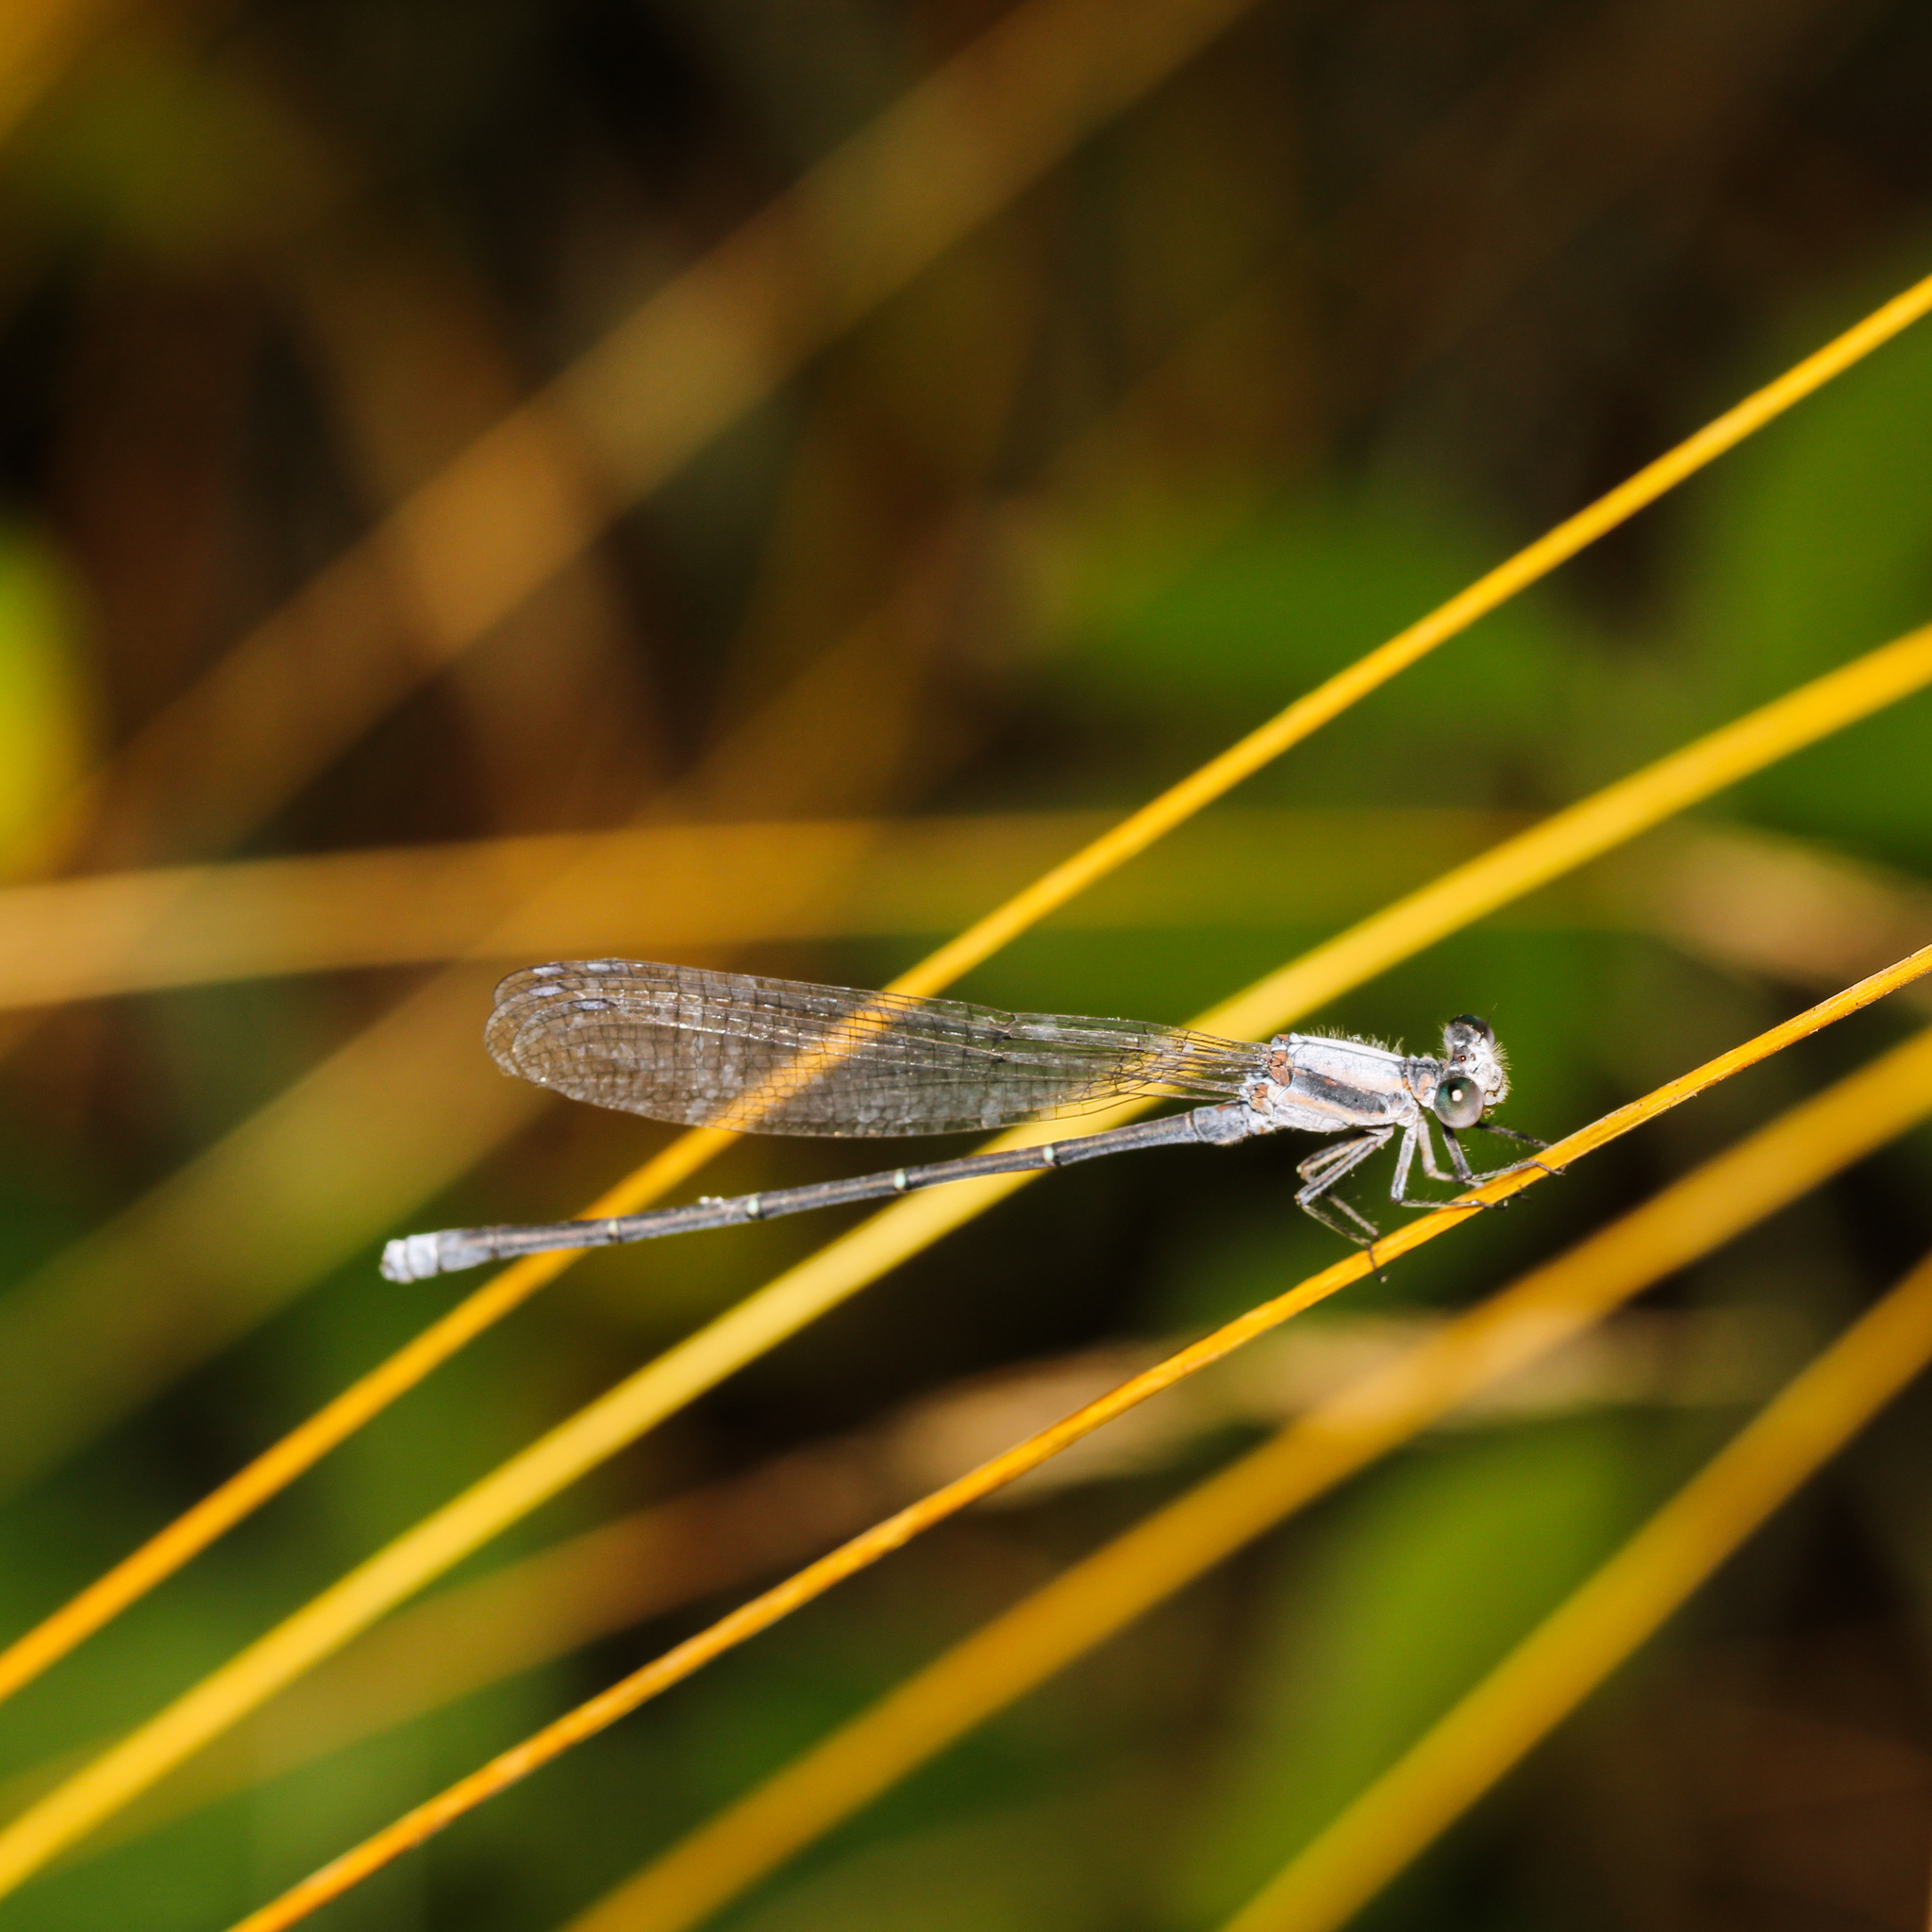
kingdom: Animalia
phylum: Arthropoda
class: Insecta
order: Odonata
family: Coenagrionidae
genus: Argia
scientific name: Argia moesta
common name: Powdered dancer
